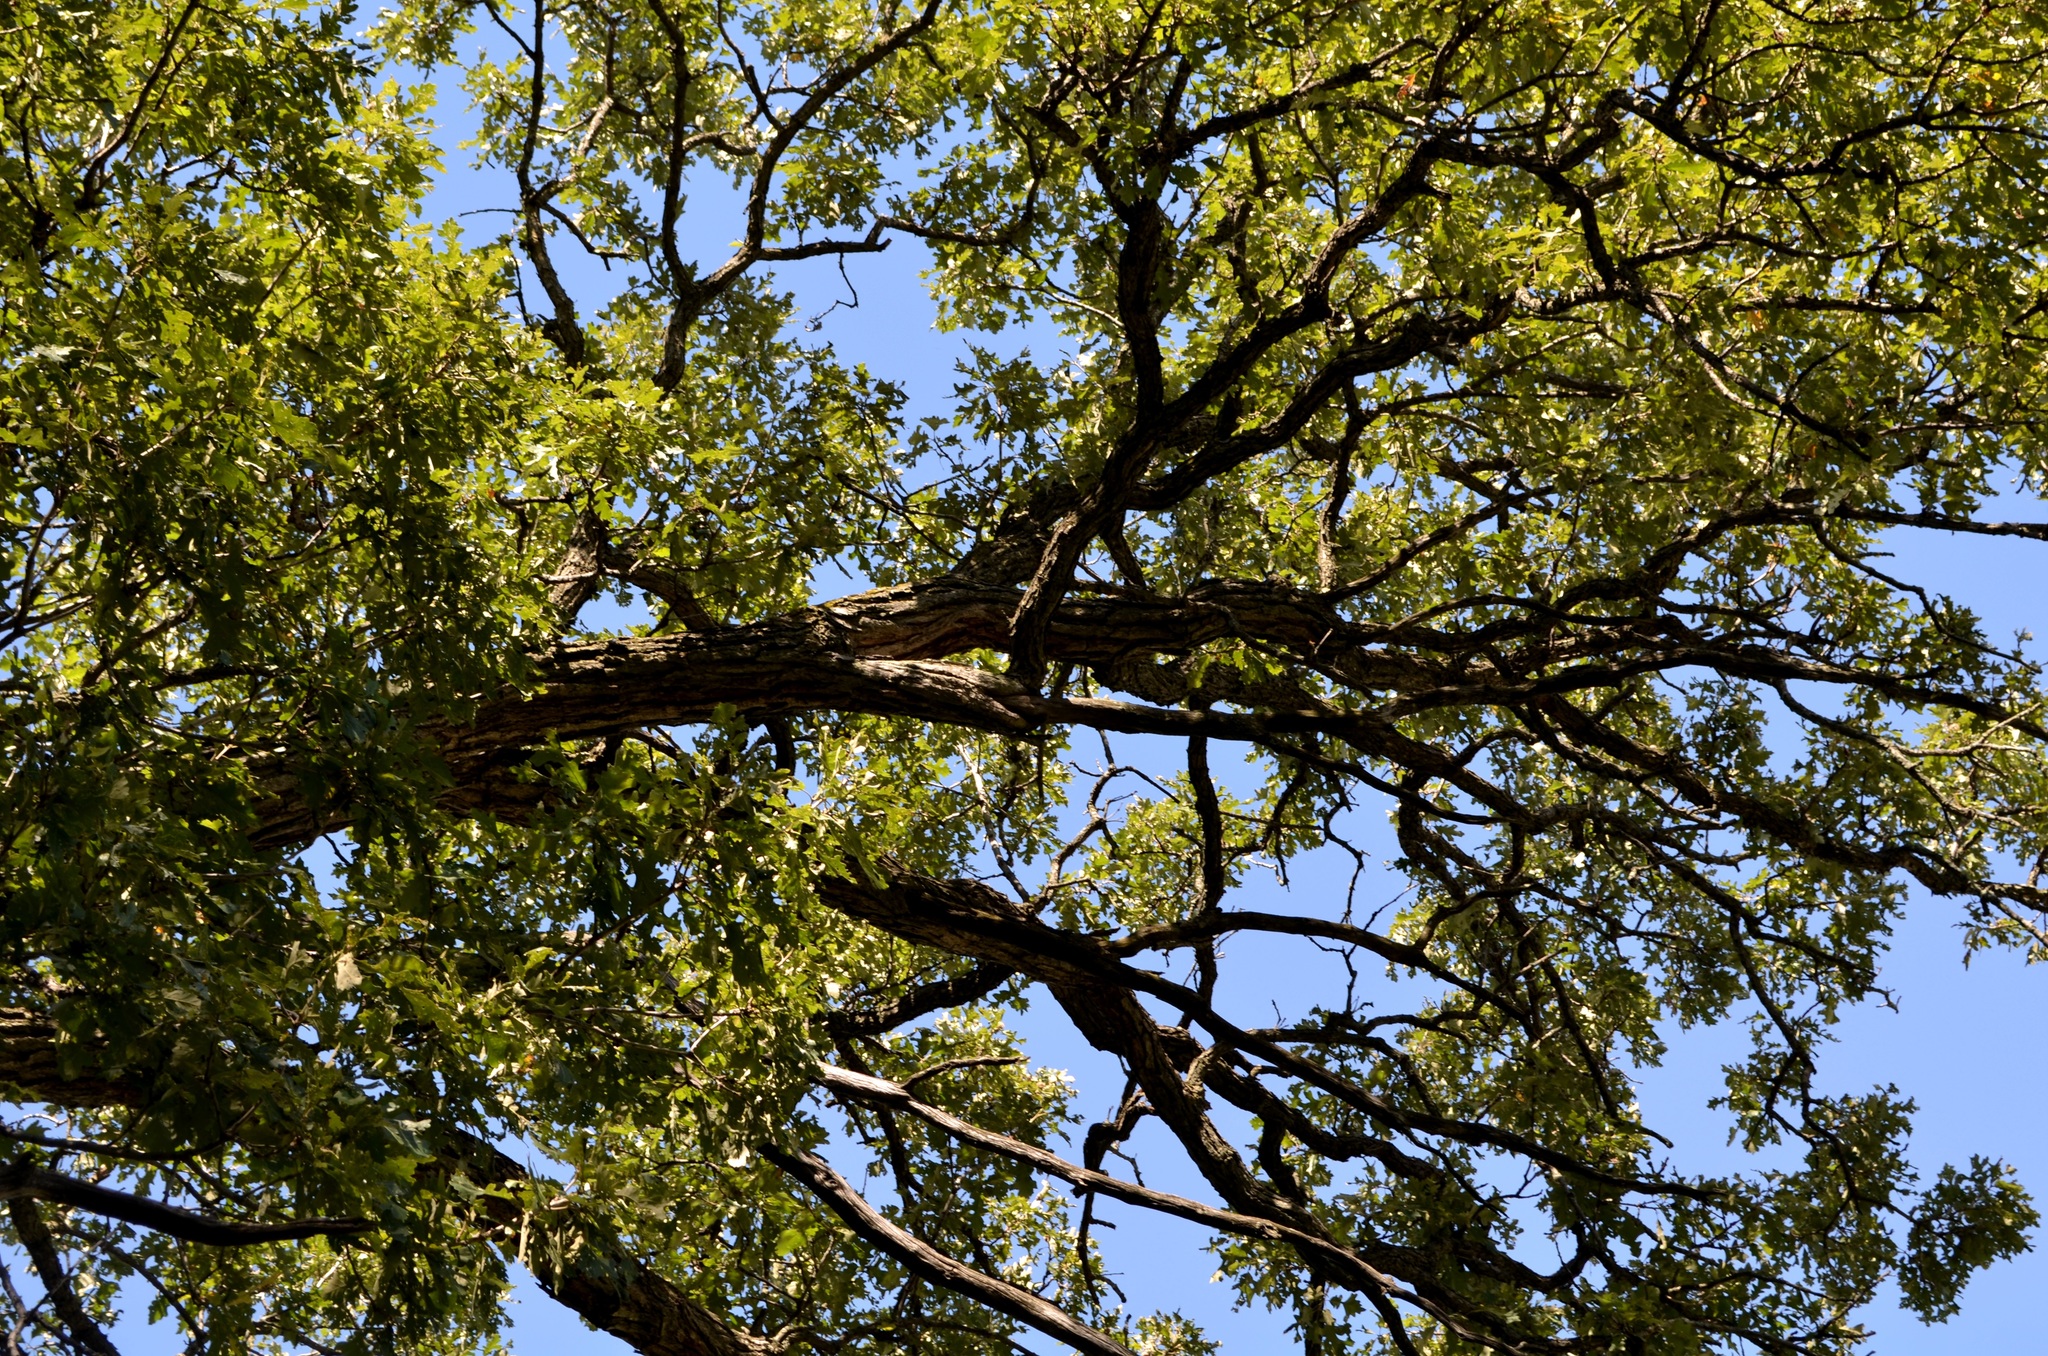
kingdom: Plantae
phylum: Tracheophyta
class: Magnoliopsida
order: Fagales
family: Fagaceae
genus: Quercus
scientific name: Quercus macrocarpa
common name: Bur oak
